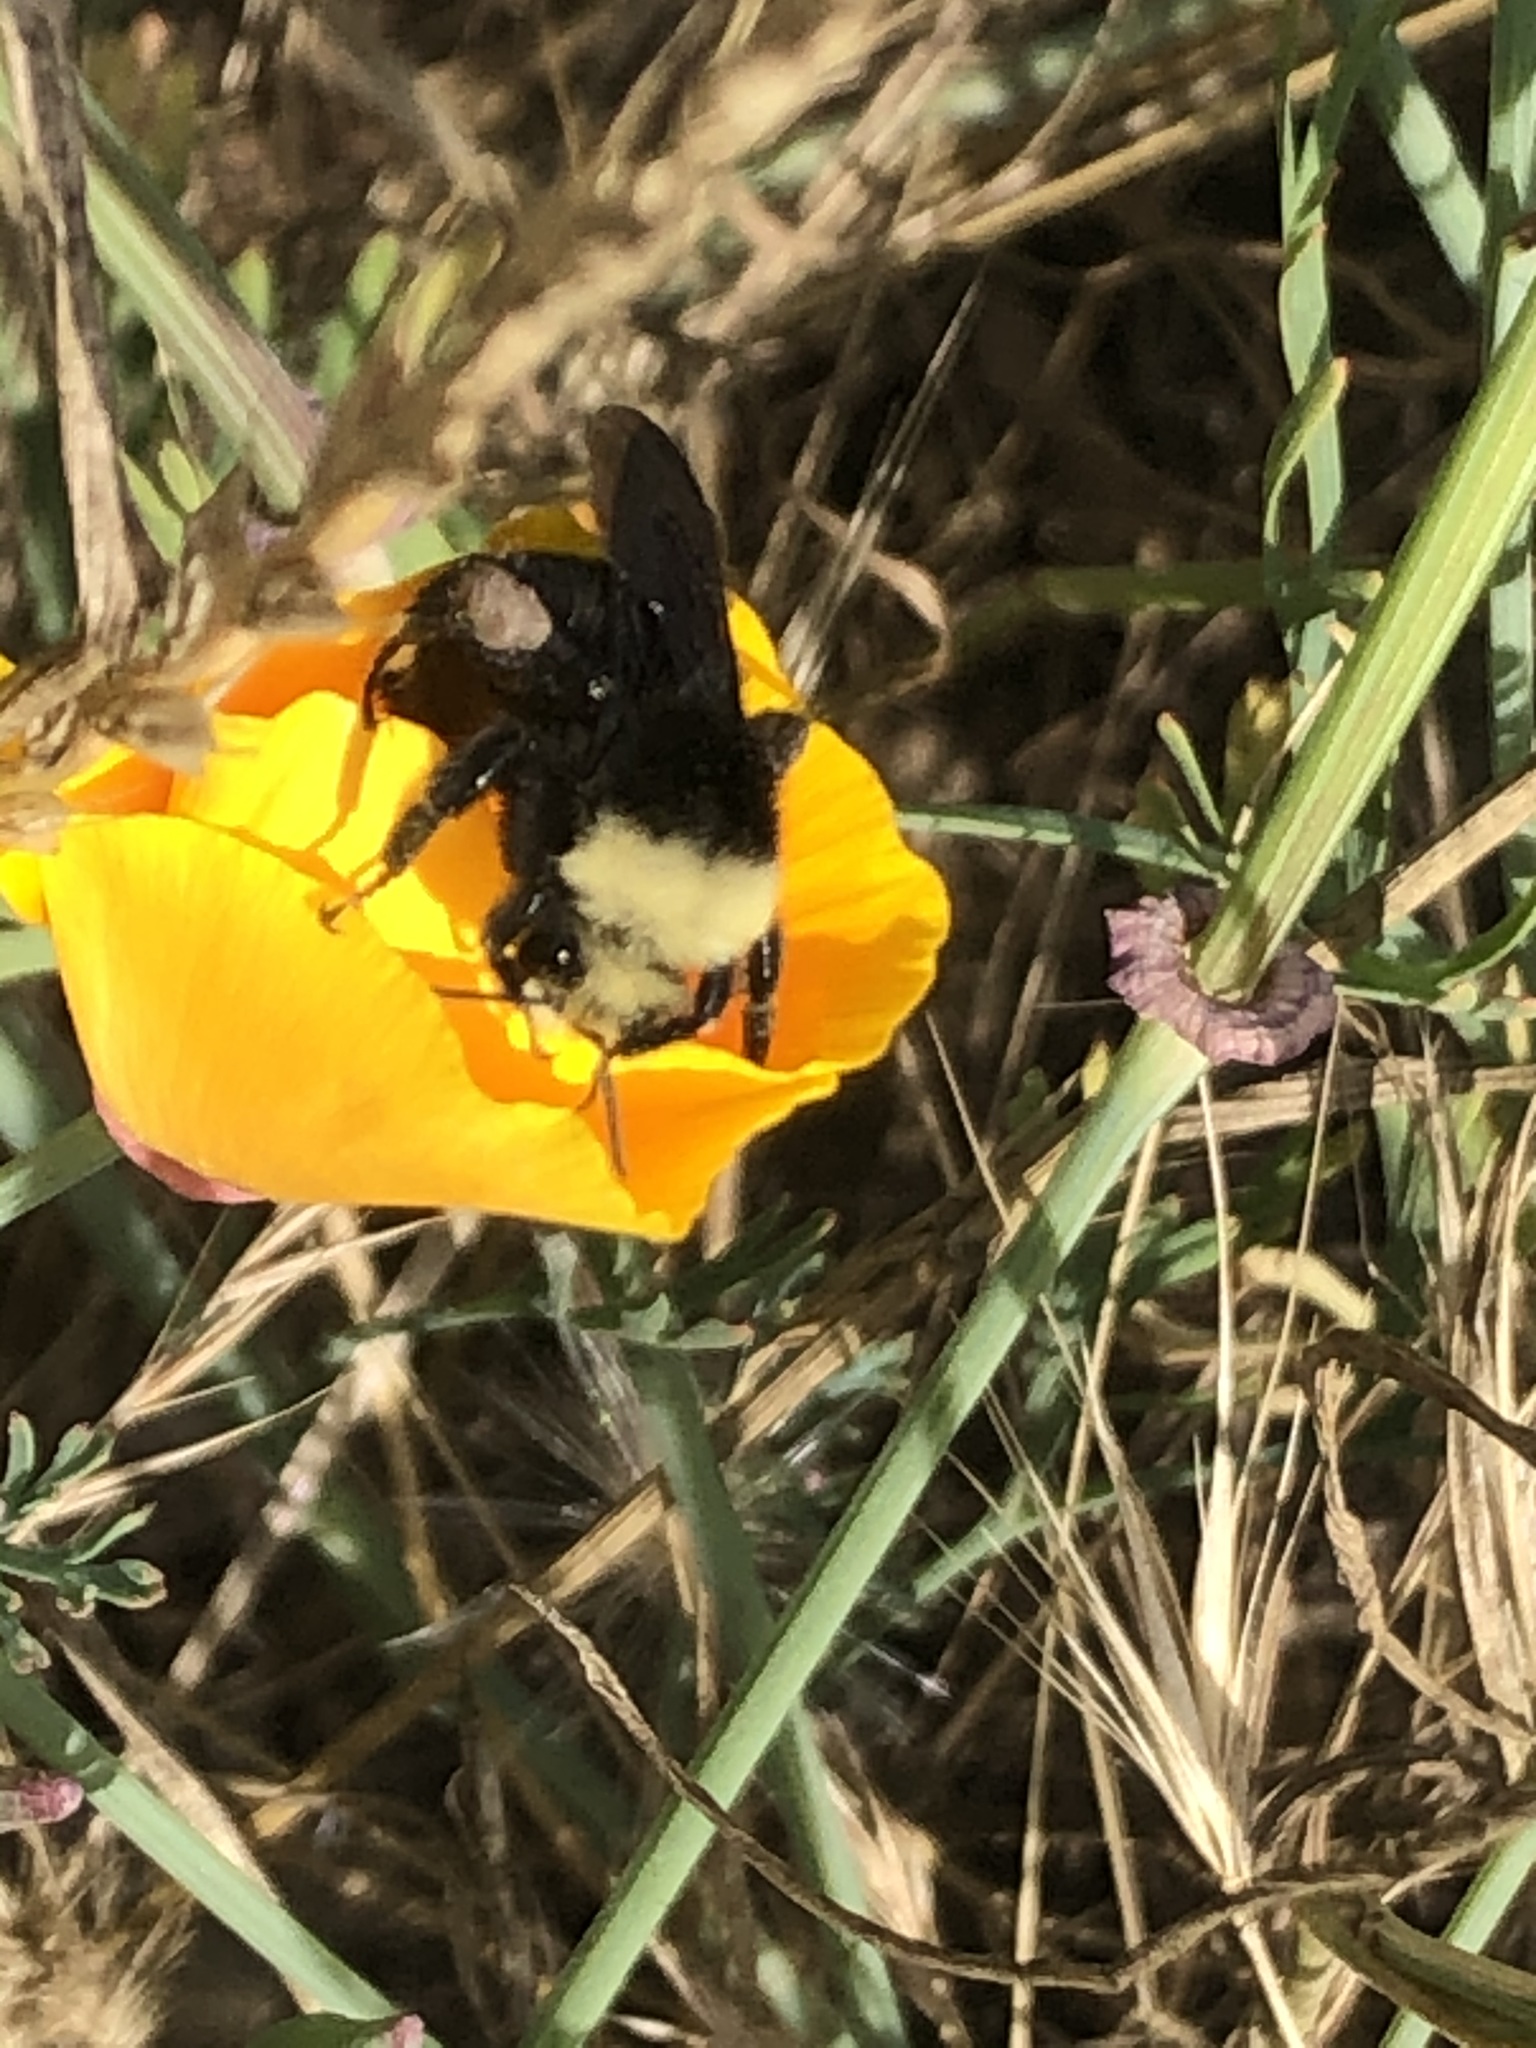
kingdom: Animalia
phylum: Arthropoda
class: Insecta
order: Hymenoptera
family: Apidae
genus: Bombus
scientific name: Bombus vosnesenskii
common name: Vosnesensky bumble bee
